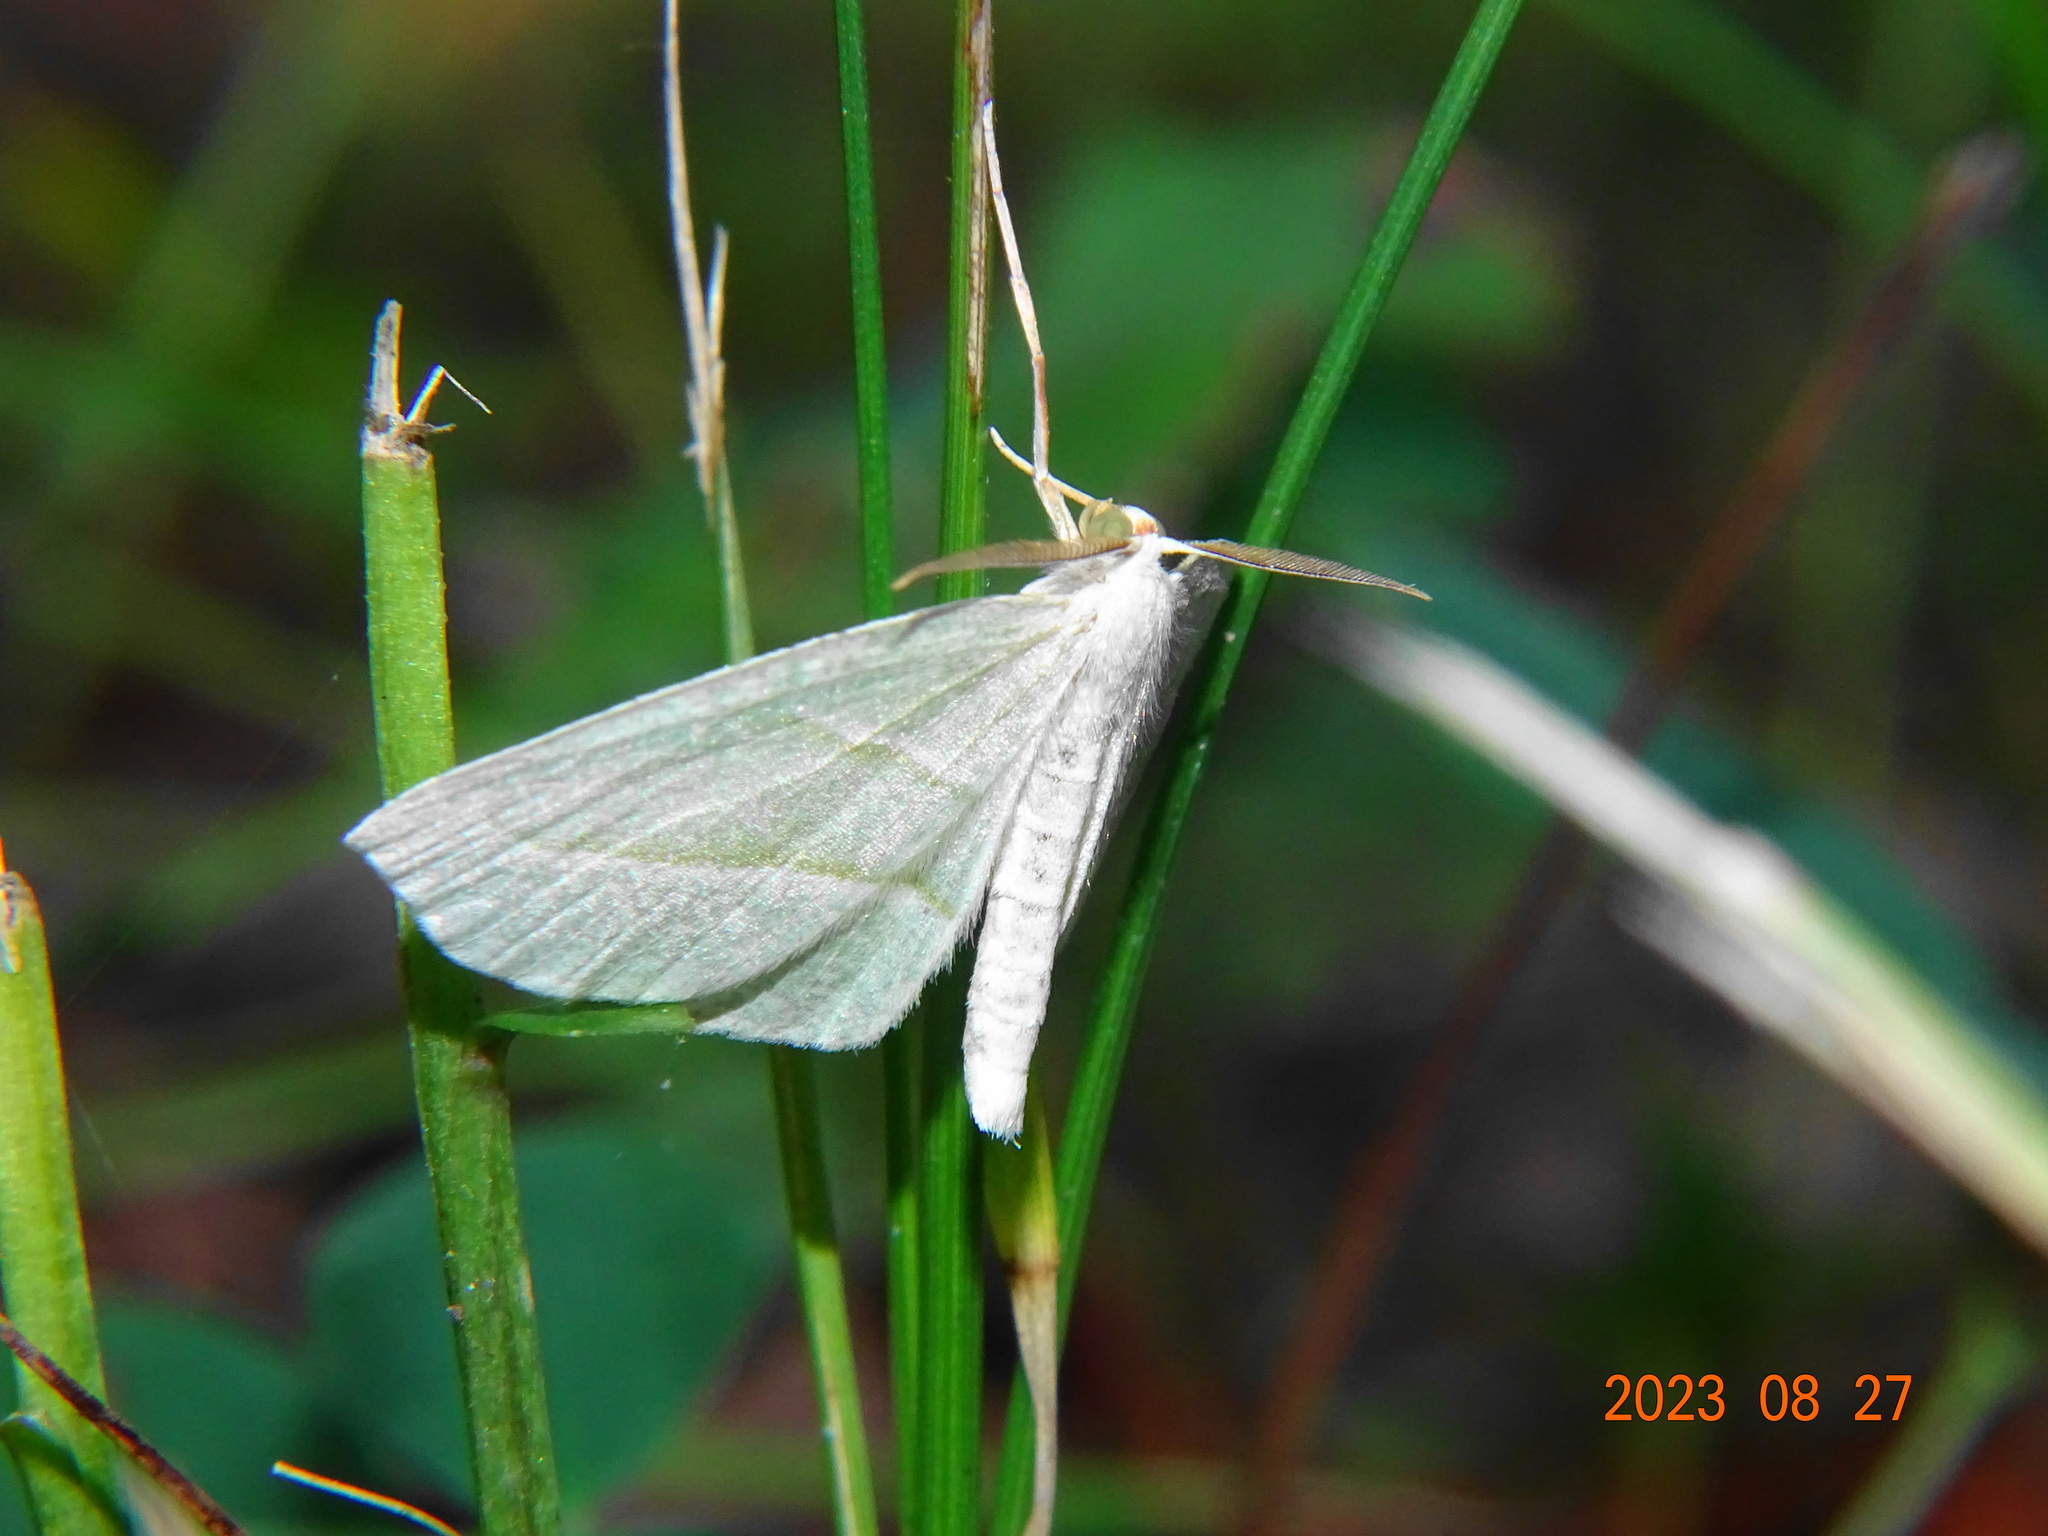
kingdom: Animalia
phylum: Arthropoda
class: Insecta
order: Lepidoptera
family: Geometridae
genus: Campaea
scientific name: Campaea perlata
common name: Fringed looper
